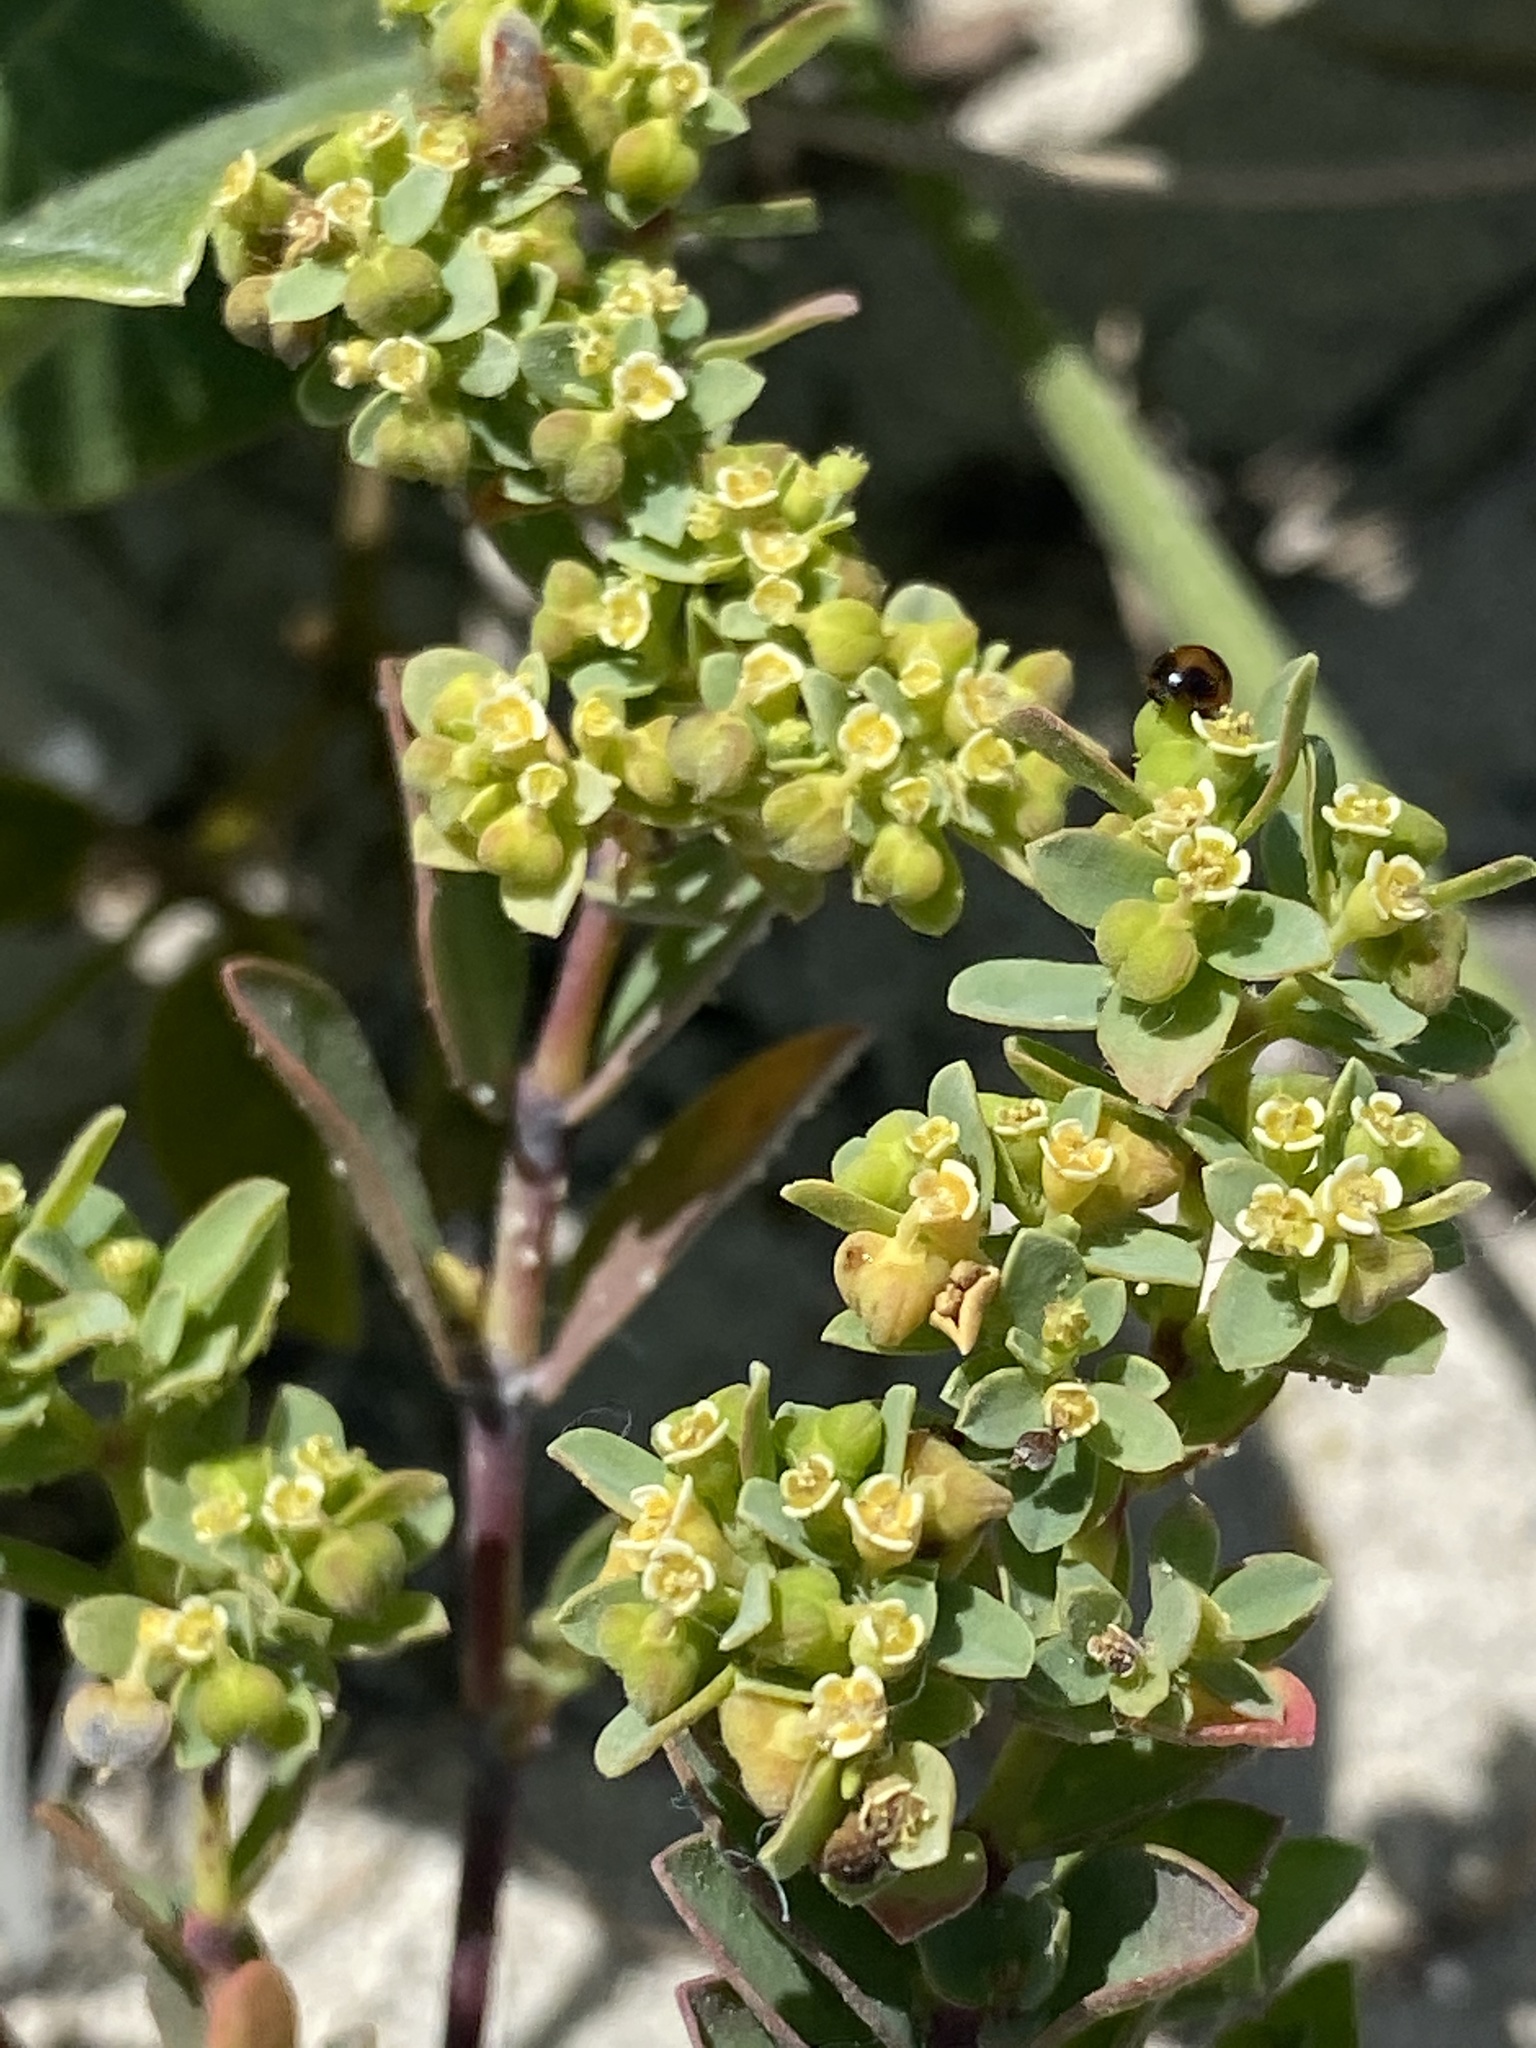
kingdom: Plantae
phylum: Tracheophyta
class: Magnoliopsida
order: Malpighiales
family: Euphorbiaceae
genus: Euphorbia
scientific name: Euphorbia mesembryanthemifolia
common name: Coastal beach sandmat
